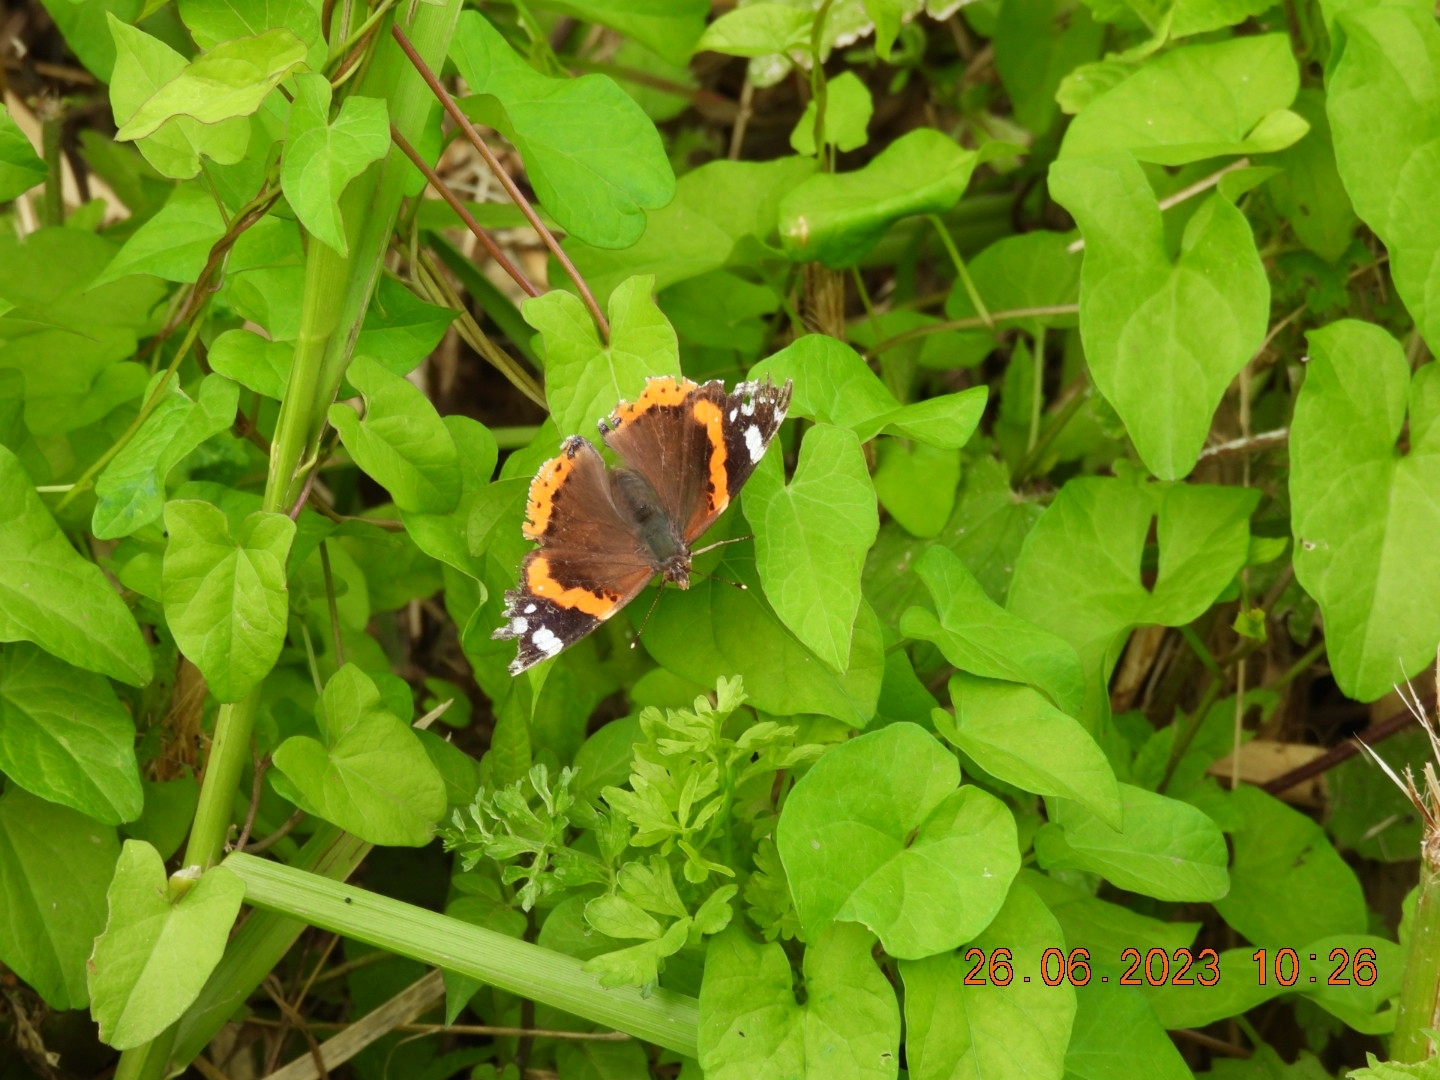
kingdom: Animalia
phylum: Arthropoda
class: Insecta
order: Lepidoptera
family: Nymphalidae
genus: Vanessa
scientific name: Vanessa atalanta
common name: Red admiral
